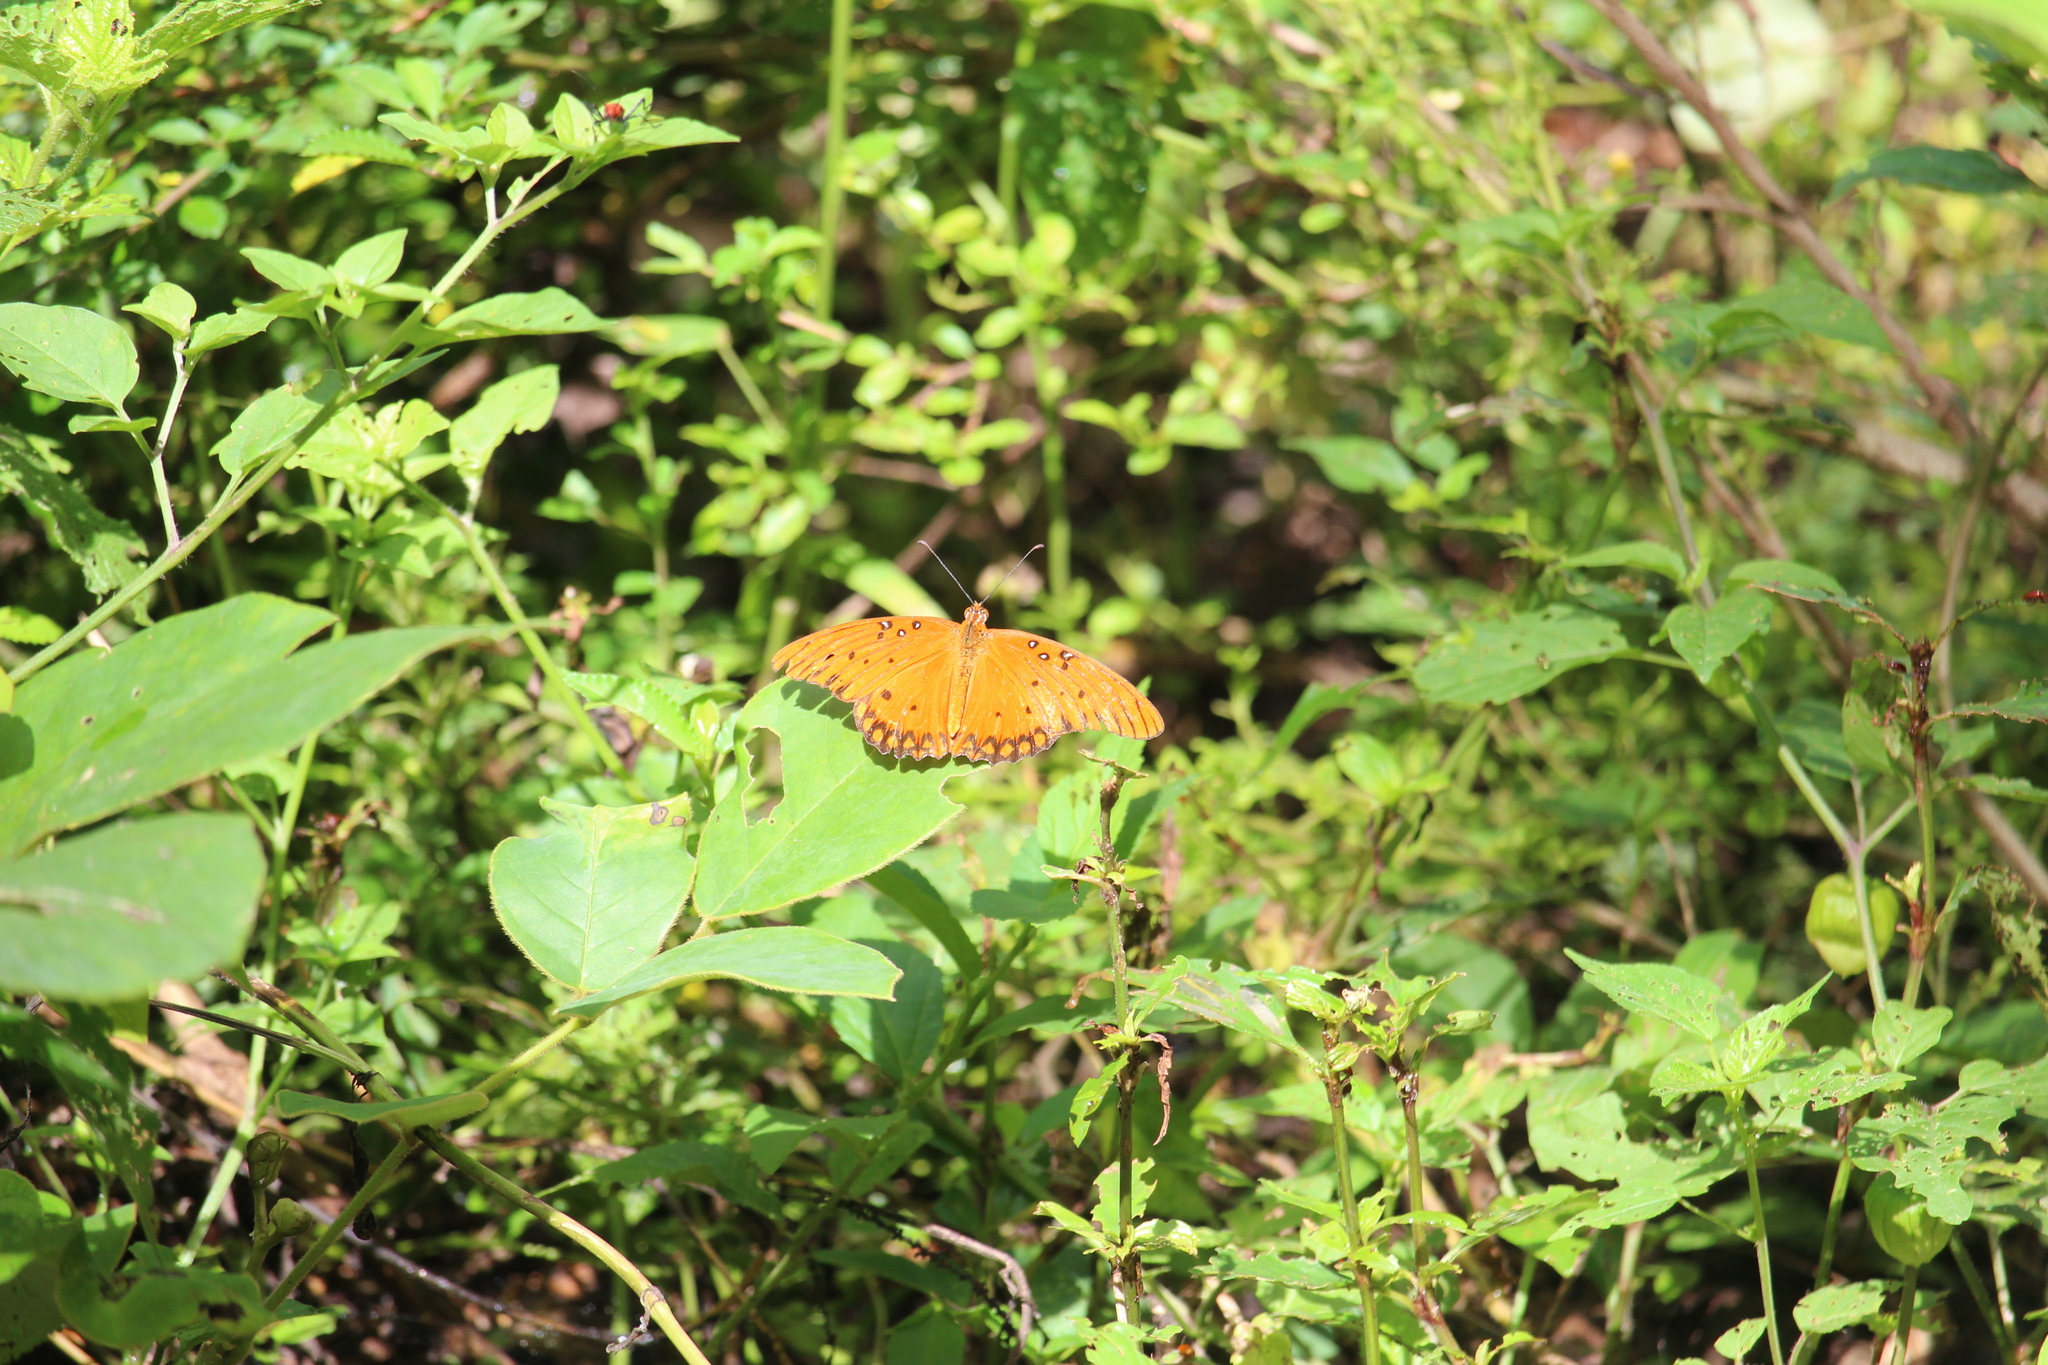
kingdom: Animalia
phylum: Arthropoda
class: Insecta
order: Lepidoptera
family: Nymphalidae
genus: Dione
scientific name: Dione vanillae
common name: Gulf fritillary
